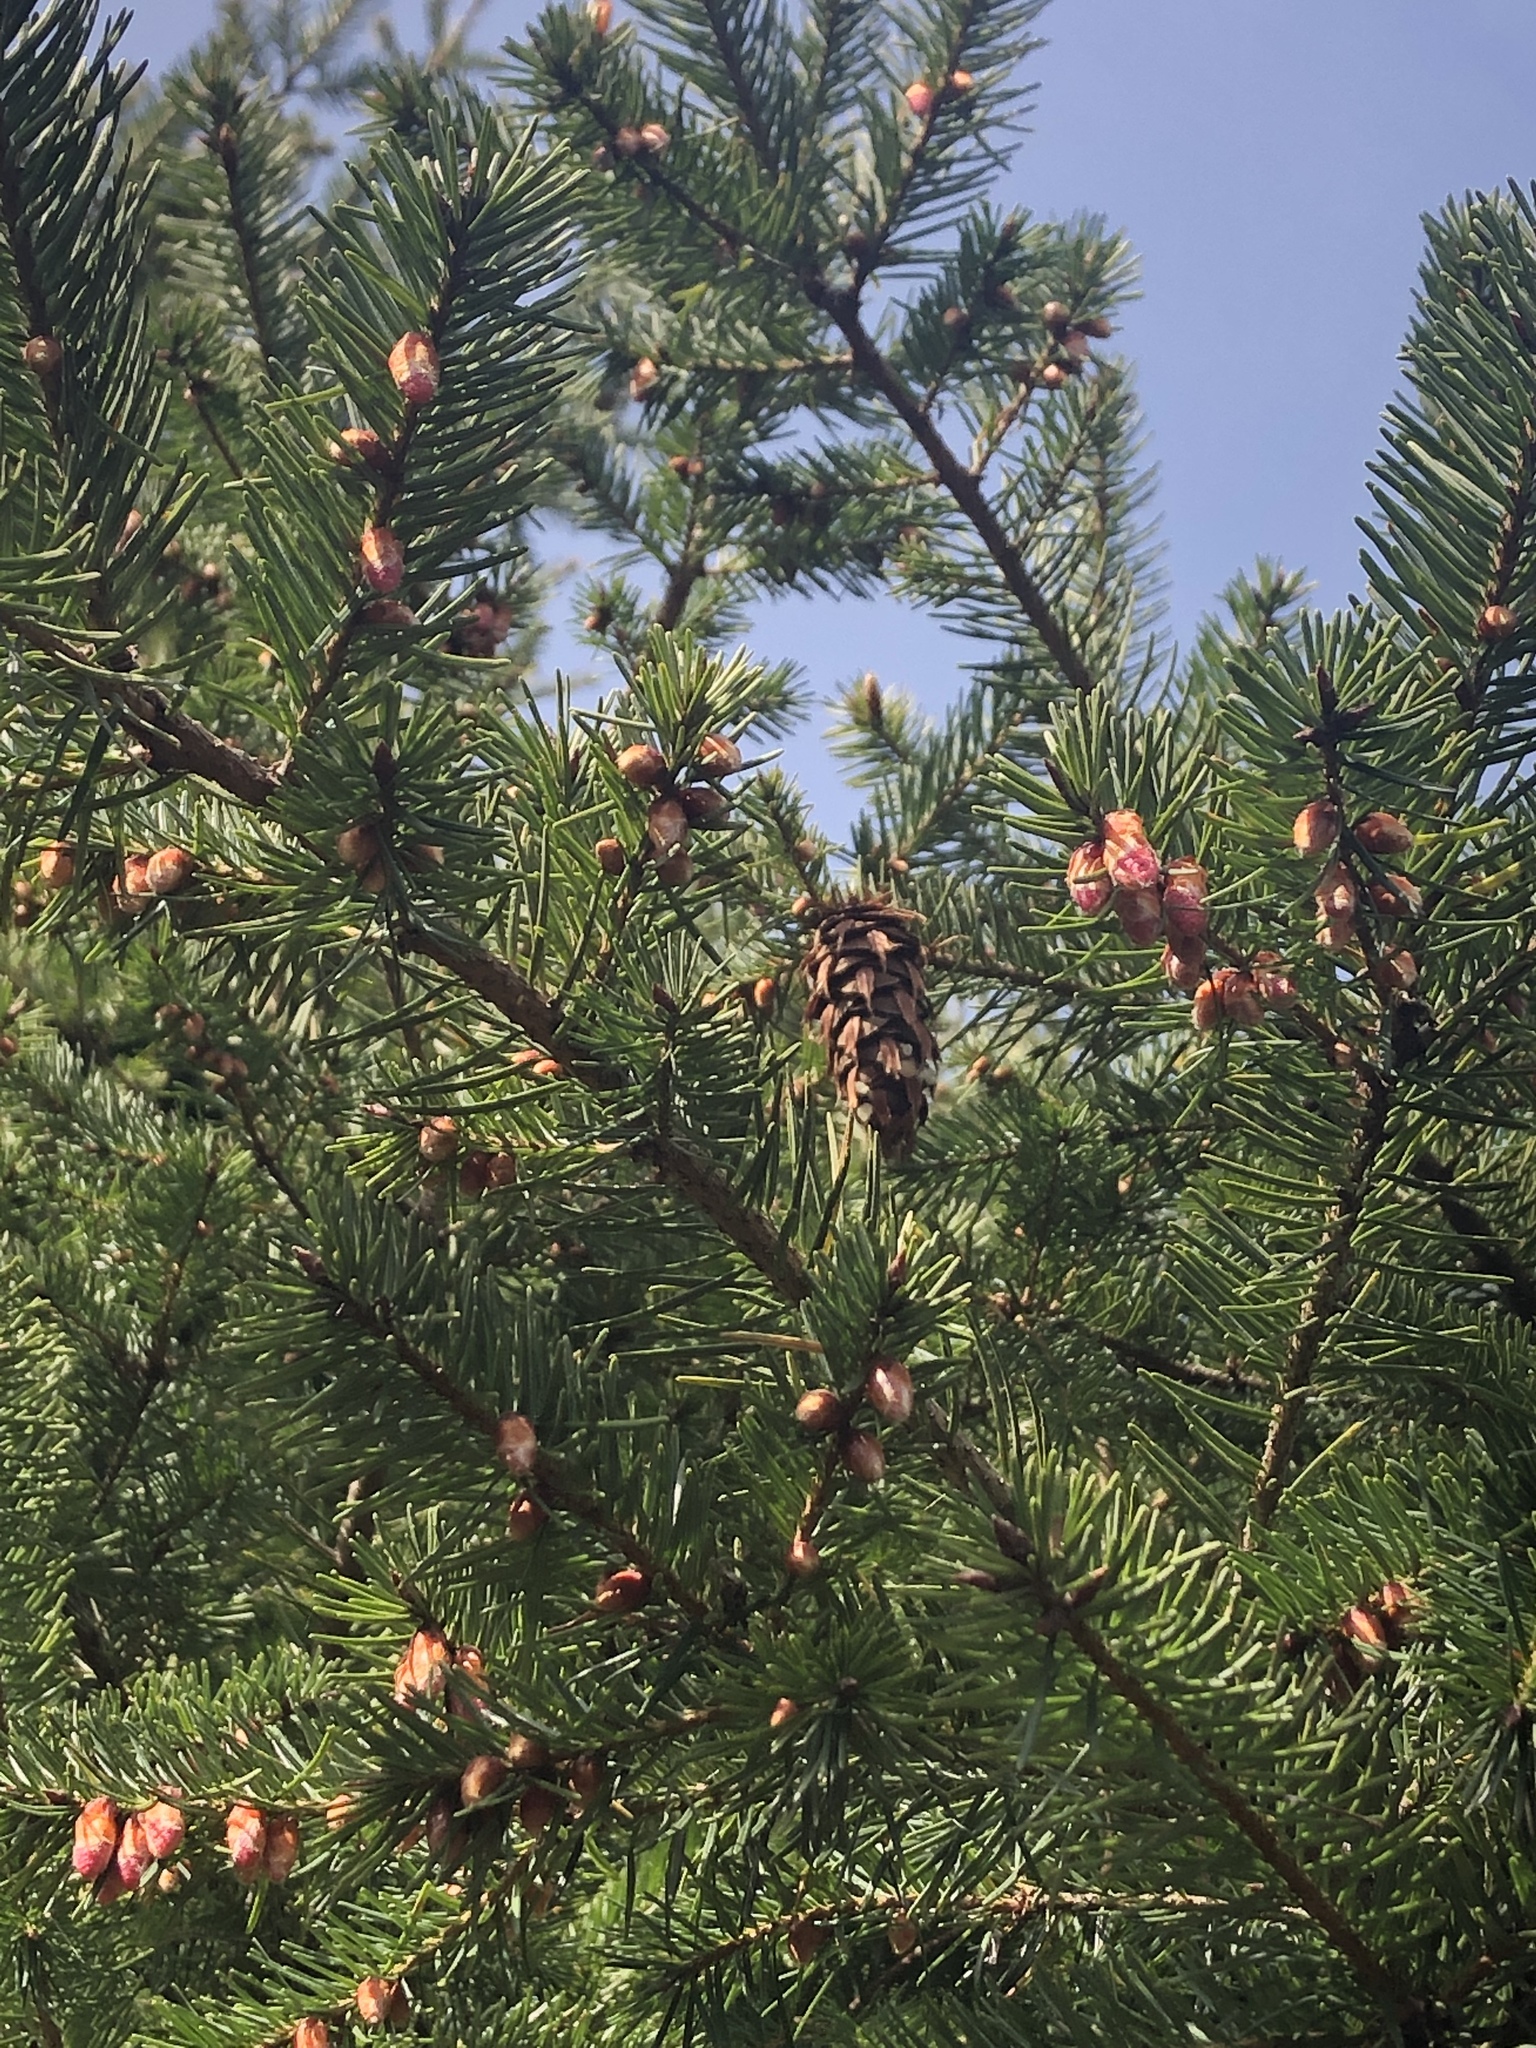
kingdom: Plantae
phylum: Tracheophyta
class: Pinopsida
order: Pinales
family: Pinaceae
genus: Pseudotsuga
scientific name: Pseudotsuga menziesii
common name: Douglas fir
